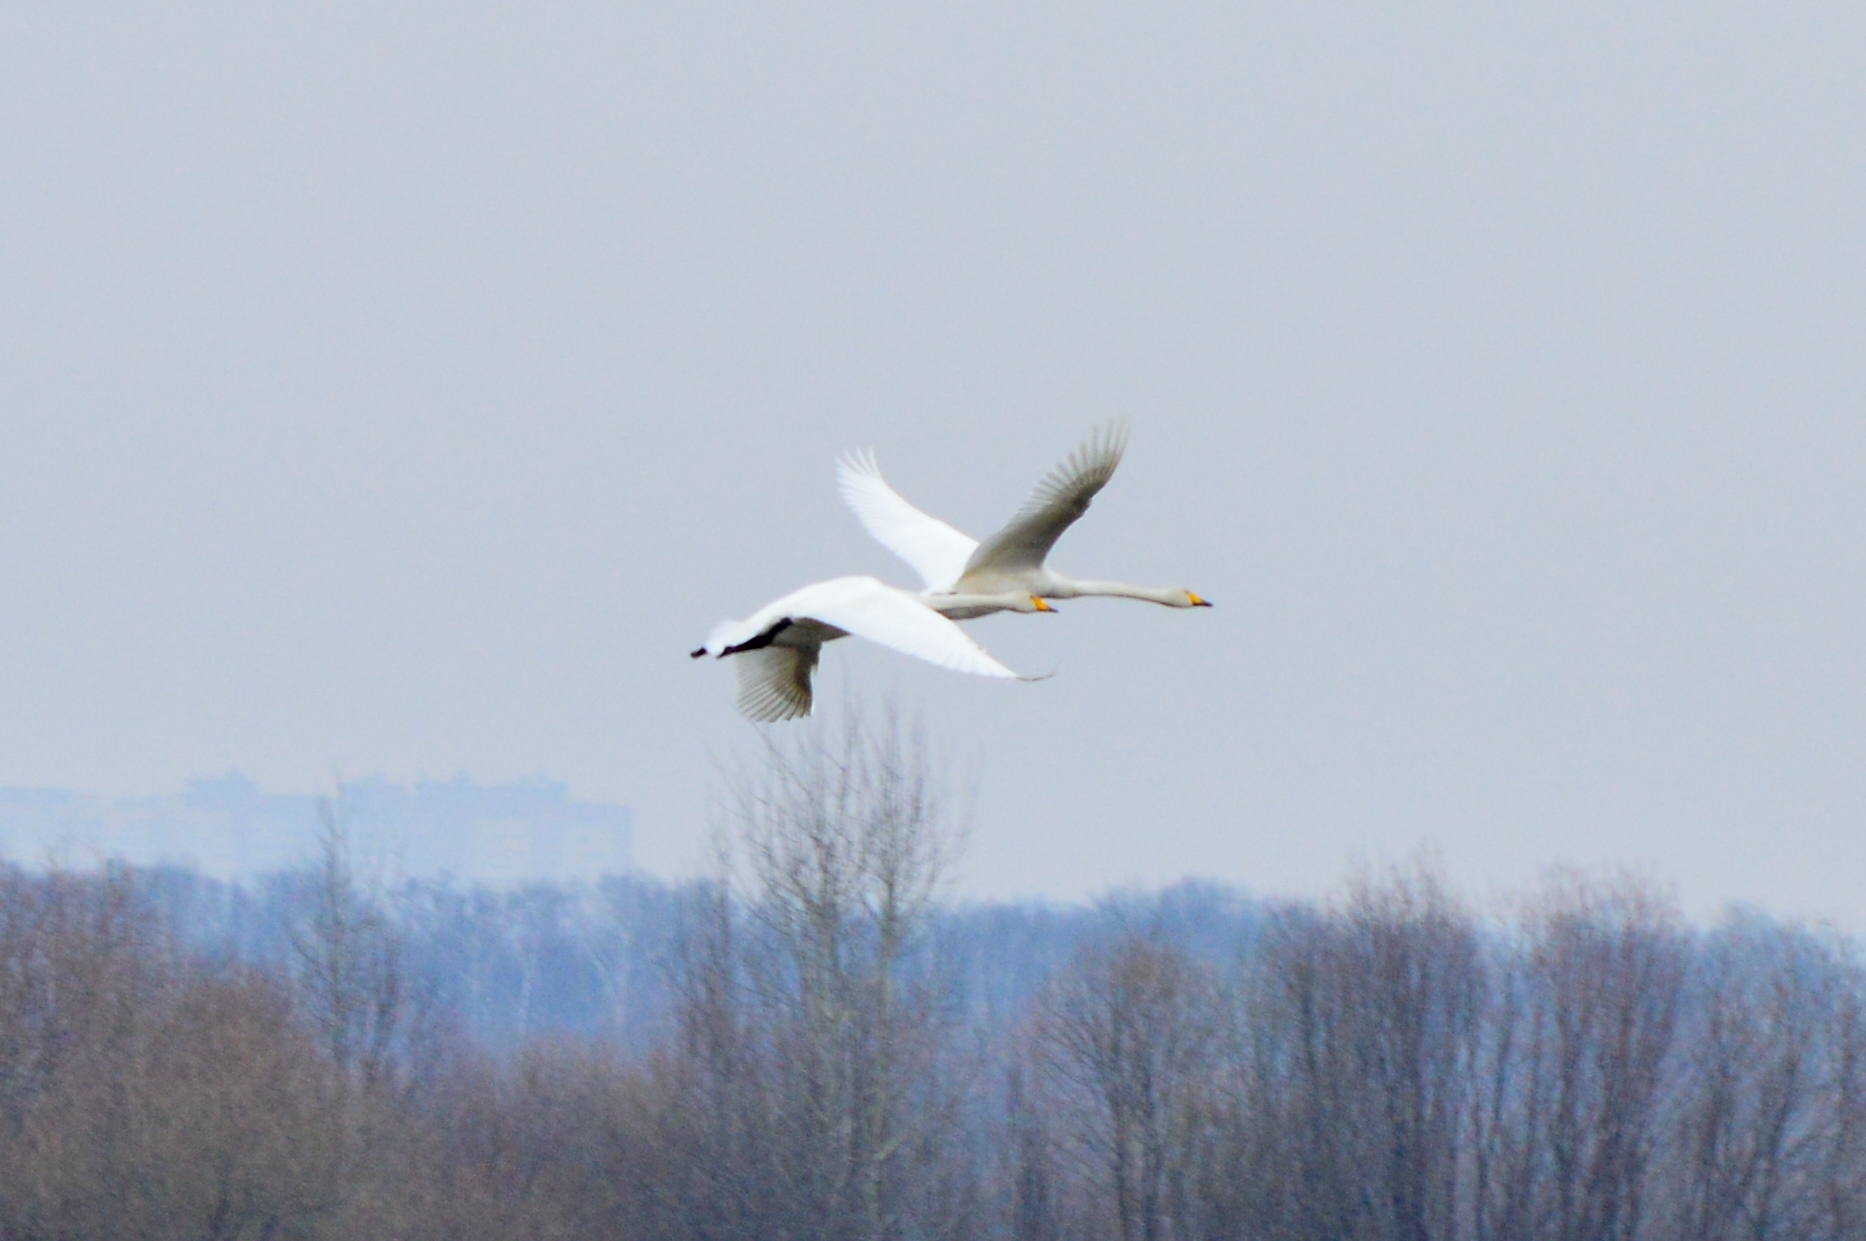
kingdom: Animalia
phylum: Chordata
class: Aves
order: Anseriformes
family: Anatidae
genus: Cygnus
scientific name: Cygnus cygnus
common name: Whooper swan
